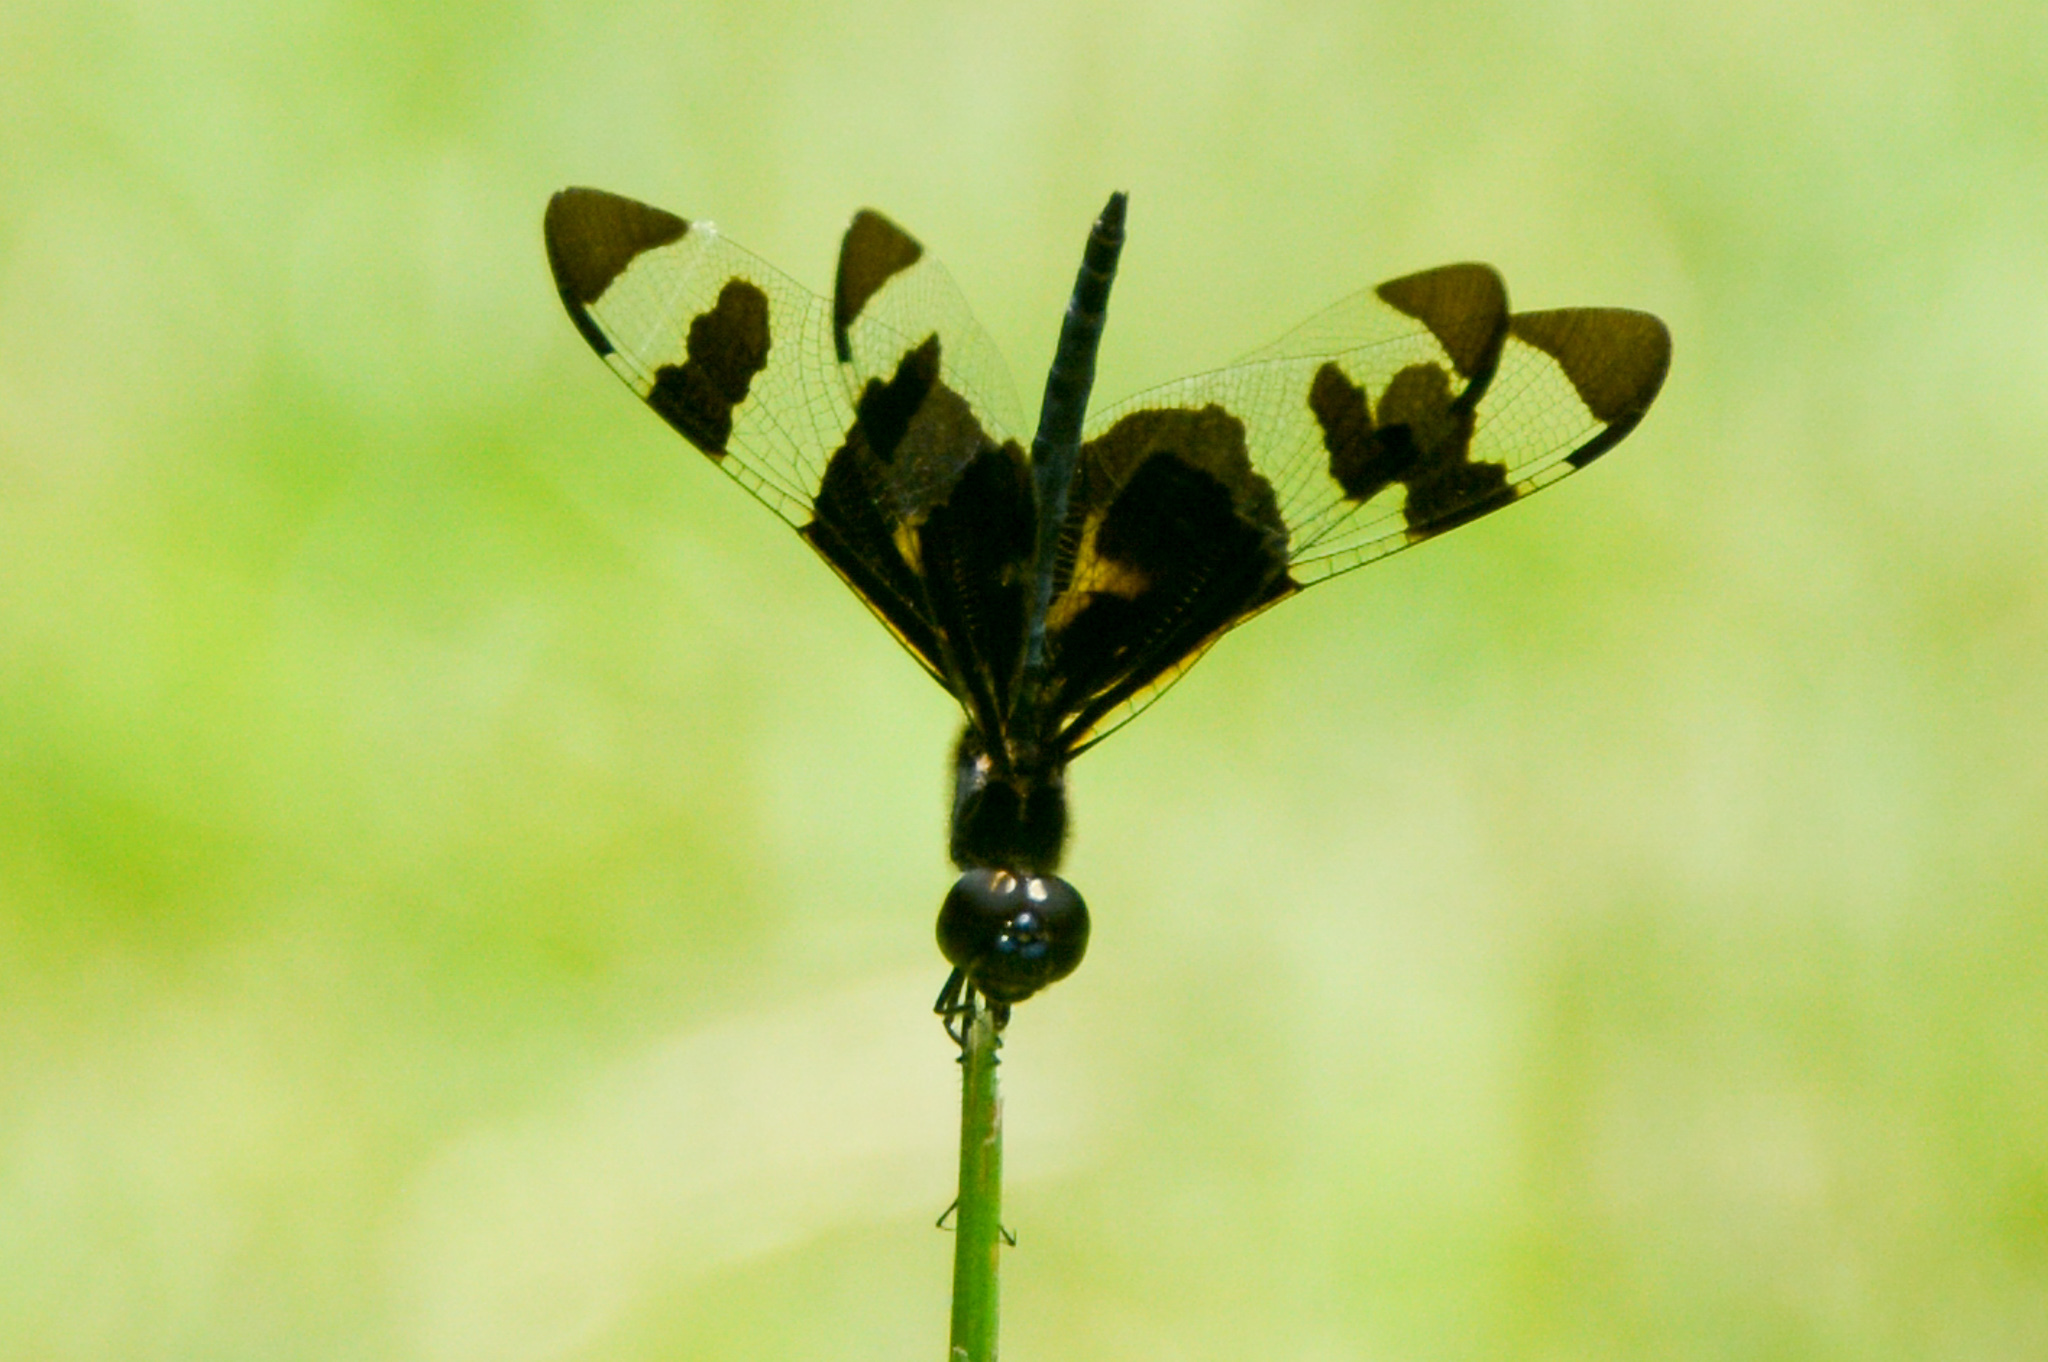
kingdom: Animalia
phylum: Arthropoda
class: Insecta
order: Odonata
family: Libellulidae
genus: Celithemis
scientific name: Celithemis fasciata
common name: Banded pennant
